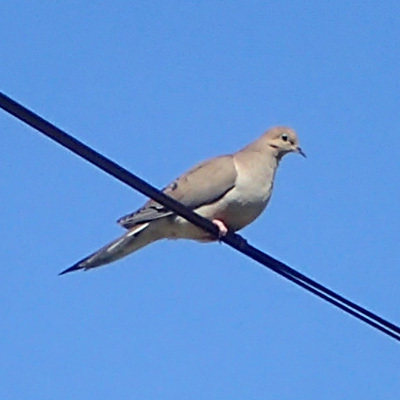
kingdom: Animalia
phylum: Chordata
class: Aves
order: Columbiformes
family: Columbidae
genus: Zenaida
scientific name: Zenaida macroura
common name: Mourning dove
